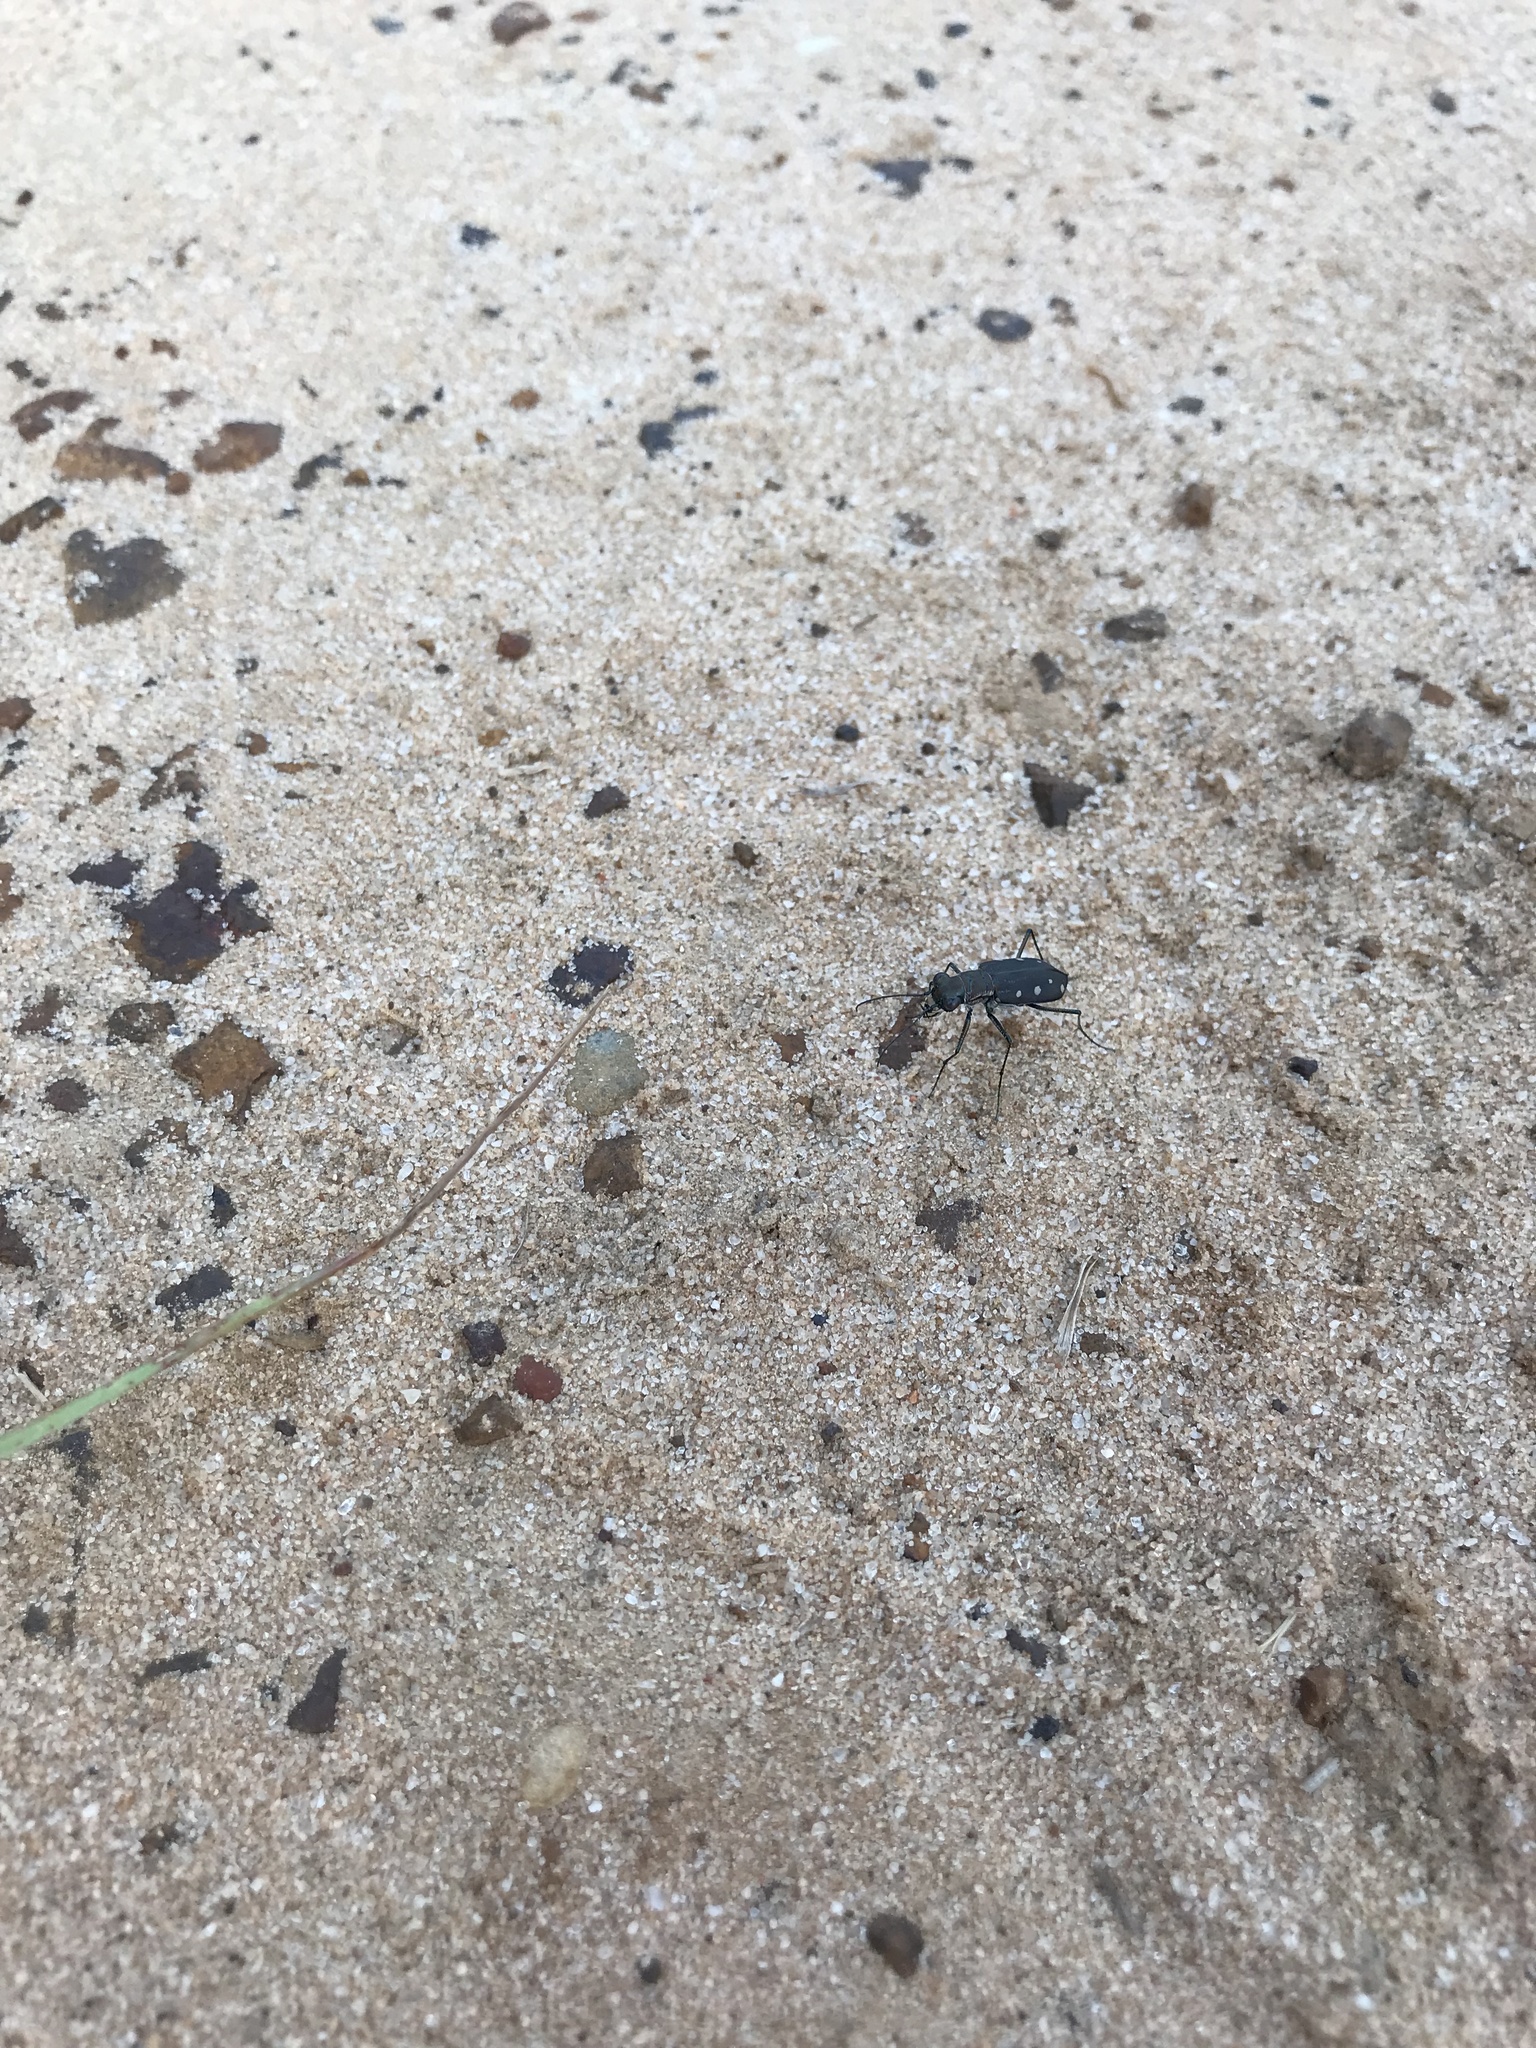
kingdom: Animalia
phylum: Arthropoda
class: Insecta
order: Coleoptera
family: Carabidae
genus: Cicindela
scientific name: Cicindela ocellata
